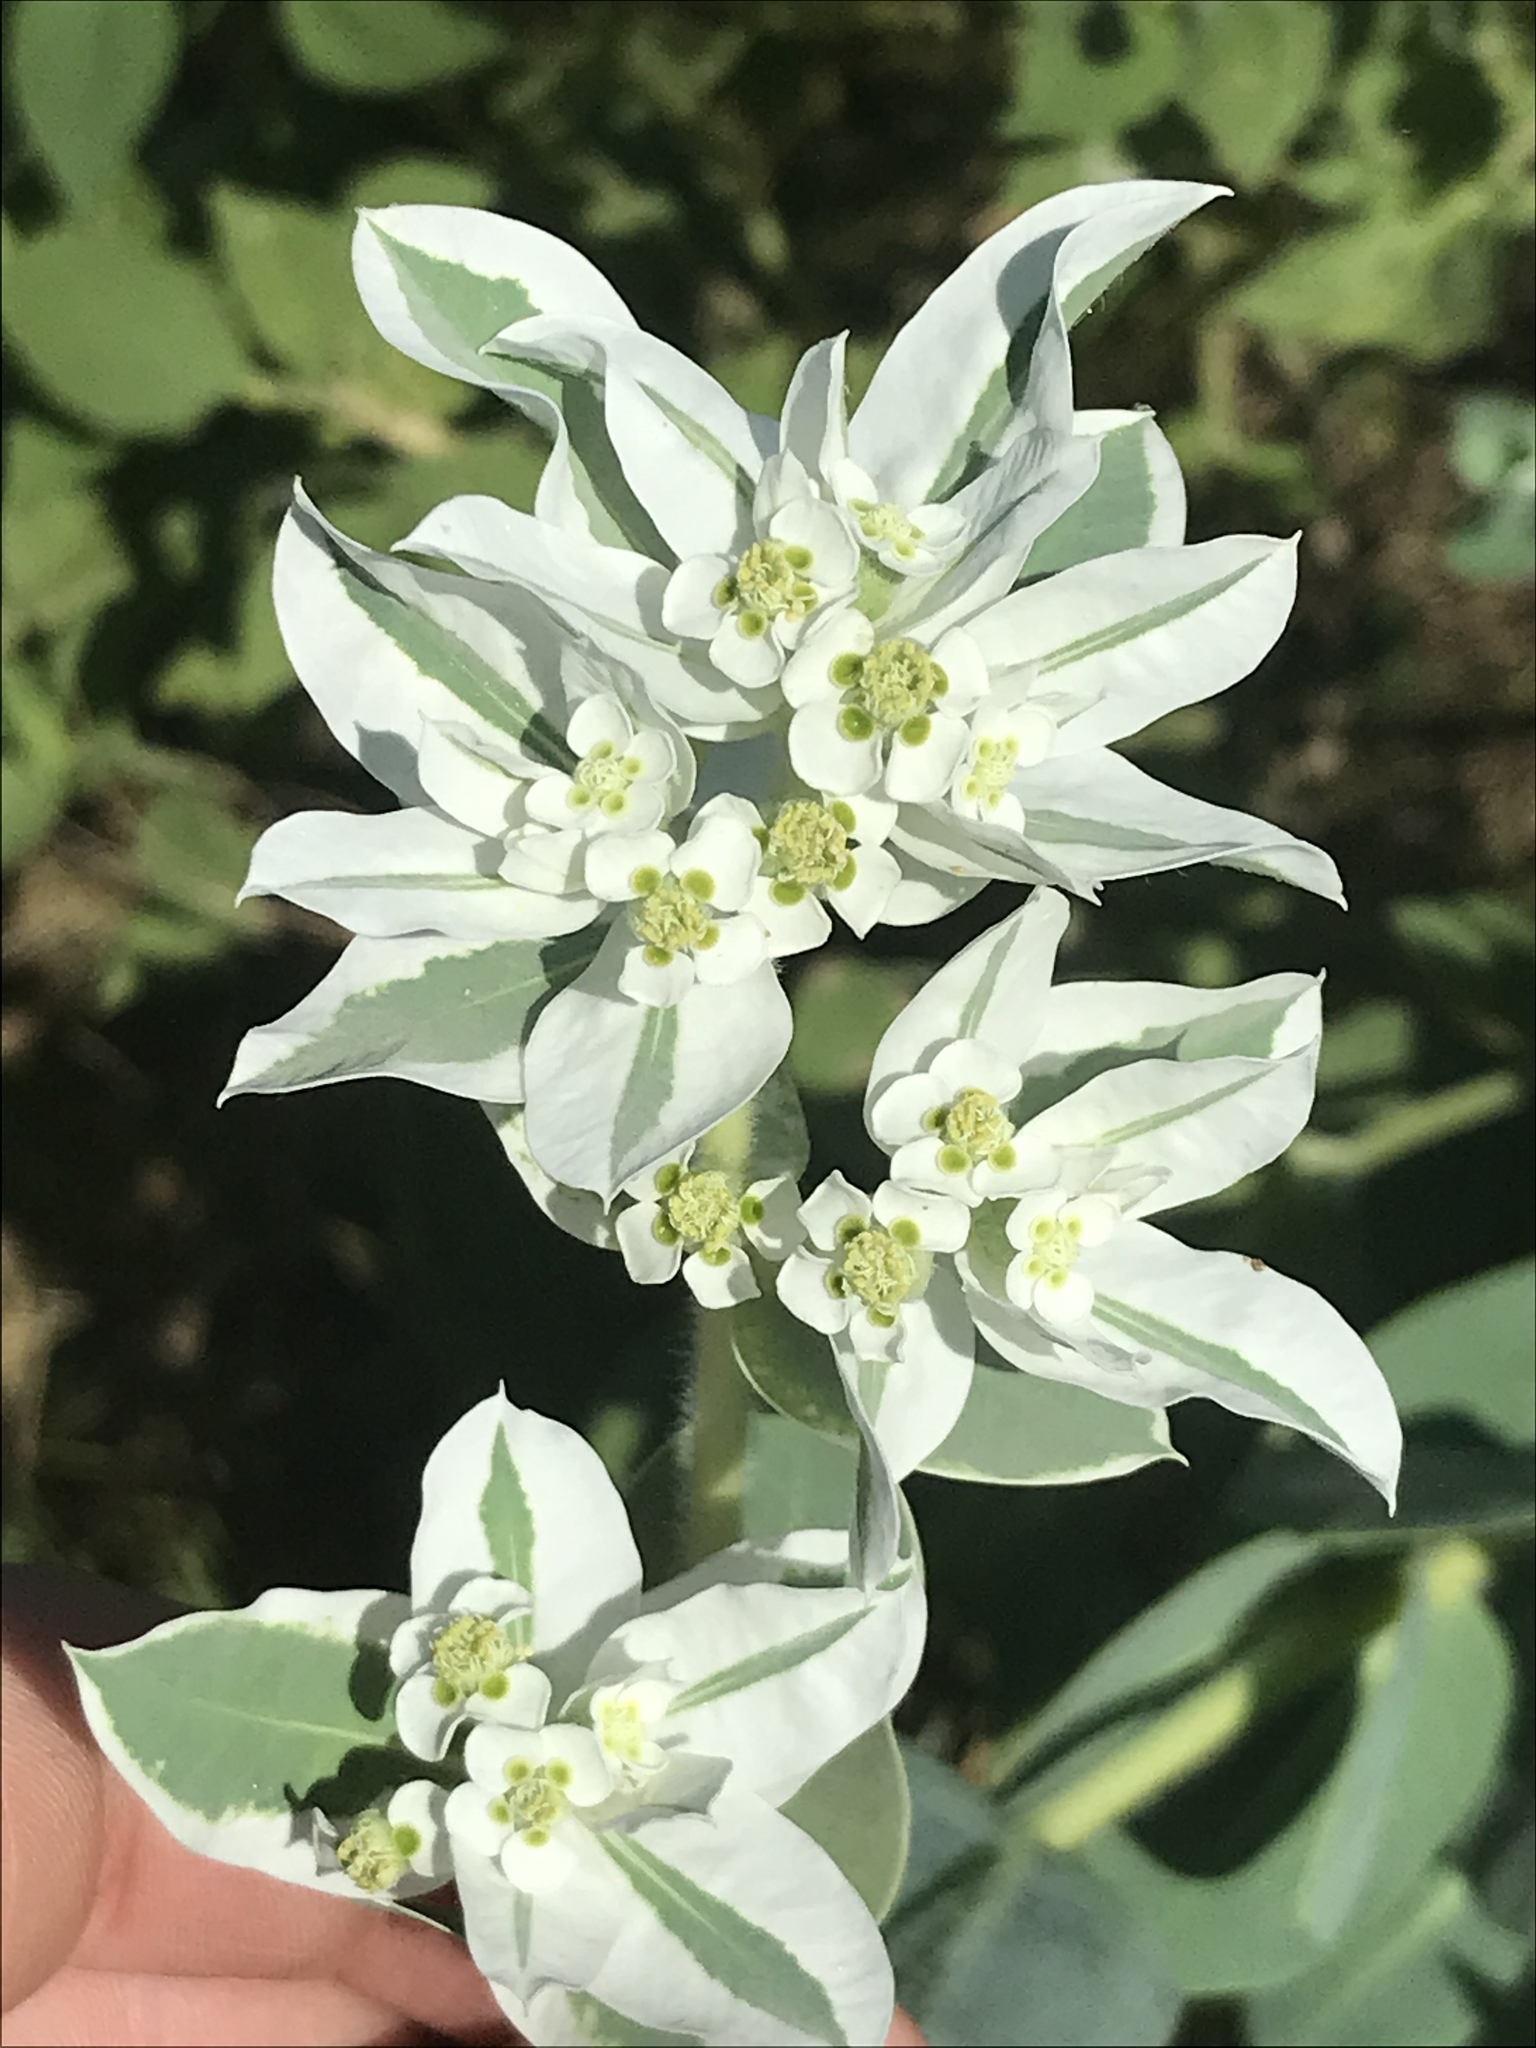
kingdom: Plantae
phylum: Tracheophyta
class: Magnoliopsida
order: Malpighiales
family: Euphorbiaceae
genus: Euphorbia
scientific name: Euphorbia marginata
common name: Ghostweed
